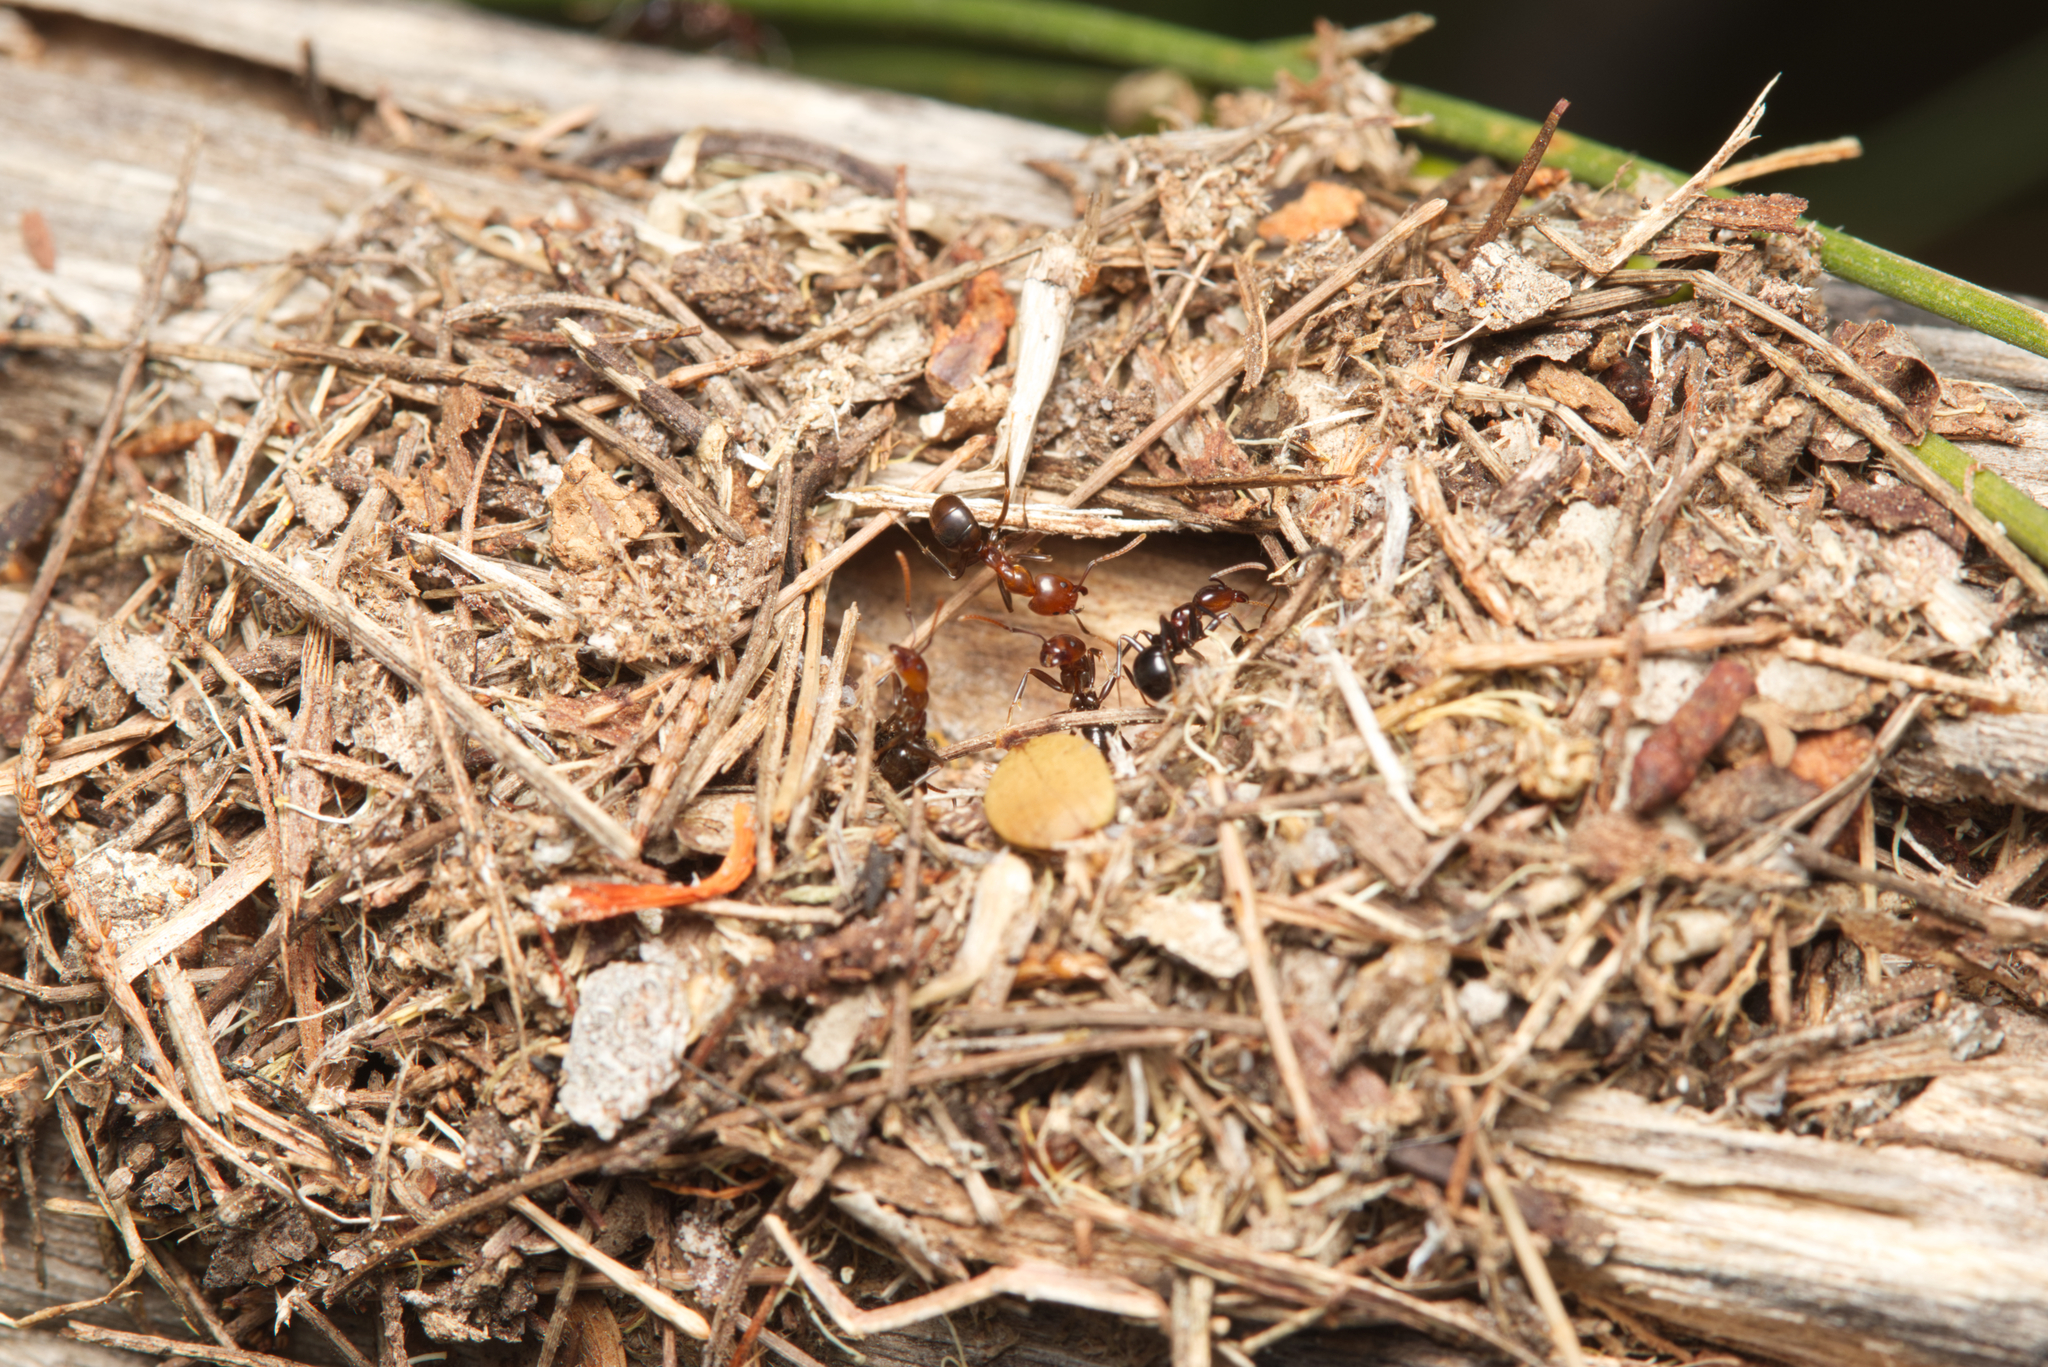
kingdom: Animalia
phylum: Arthropoda
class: Insecta
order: Hymenoptera
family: Formicidae
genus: Papyrius
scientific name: Papyrius nitidus
